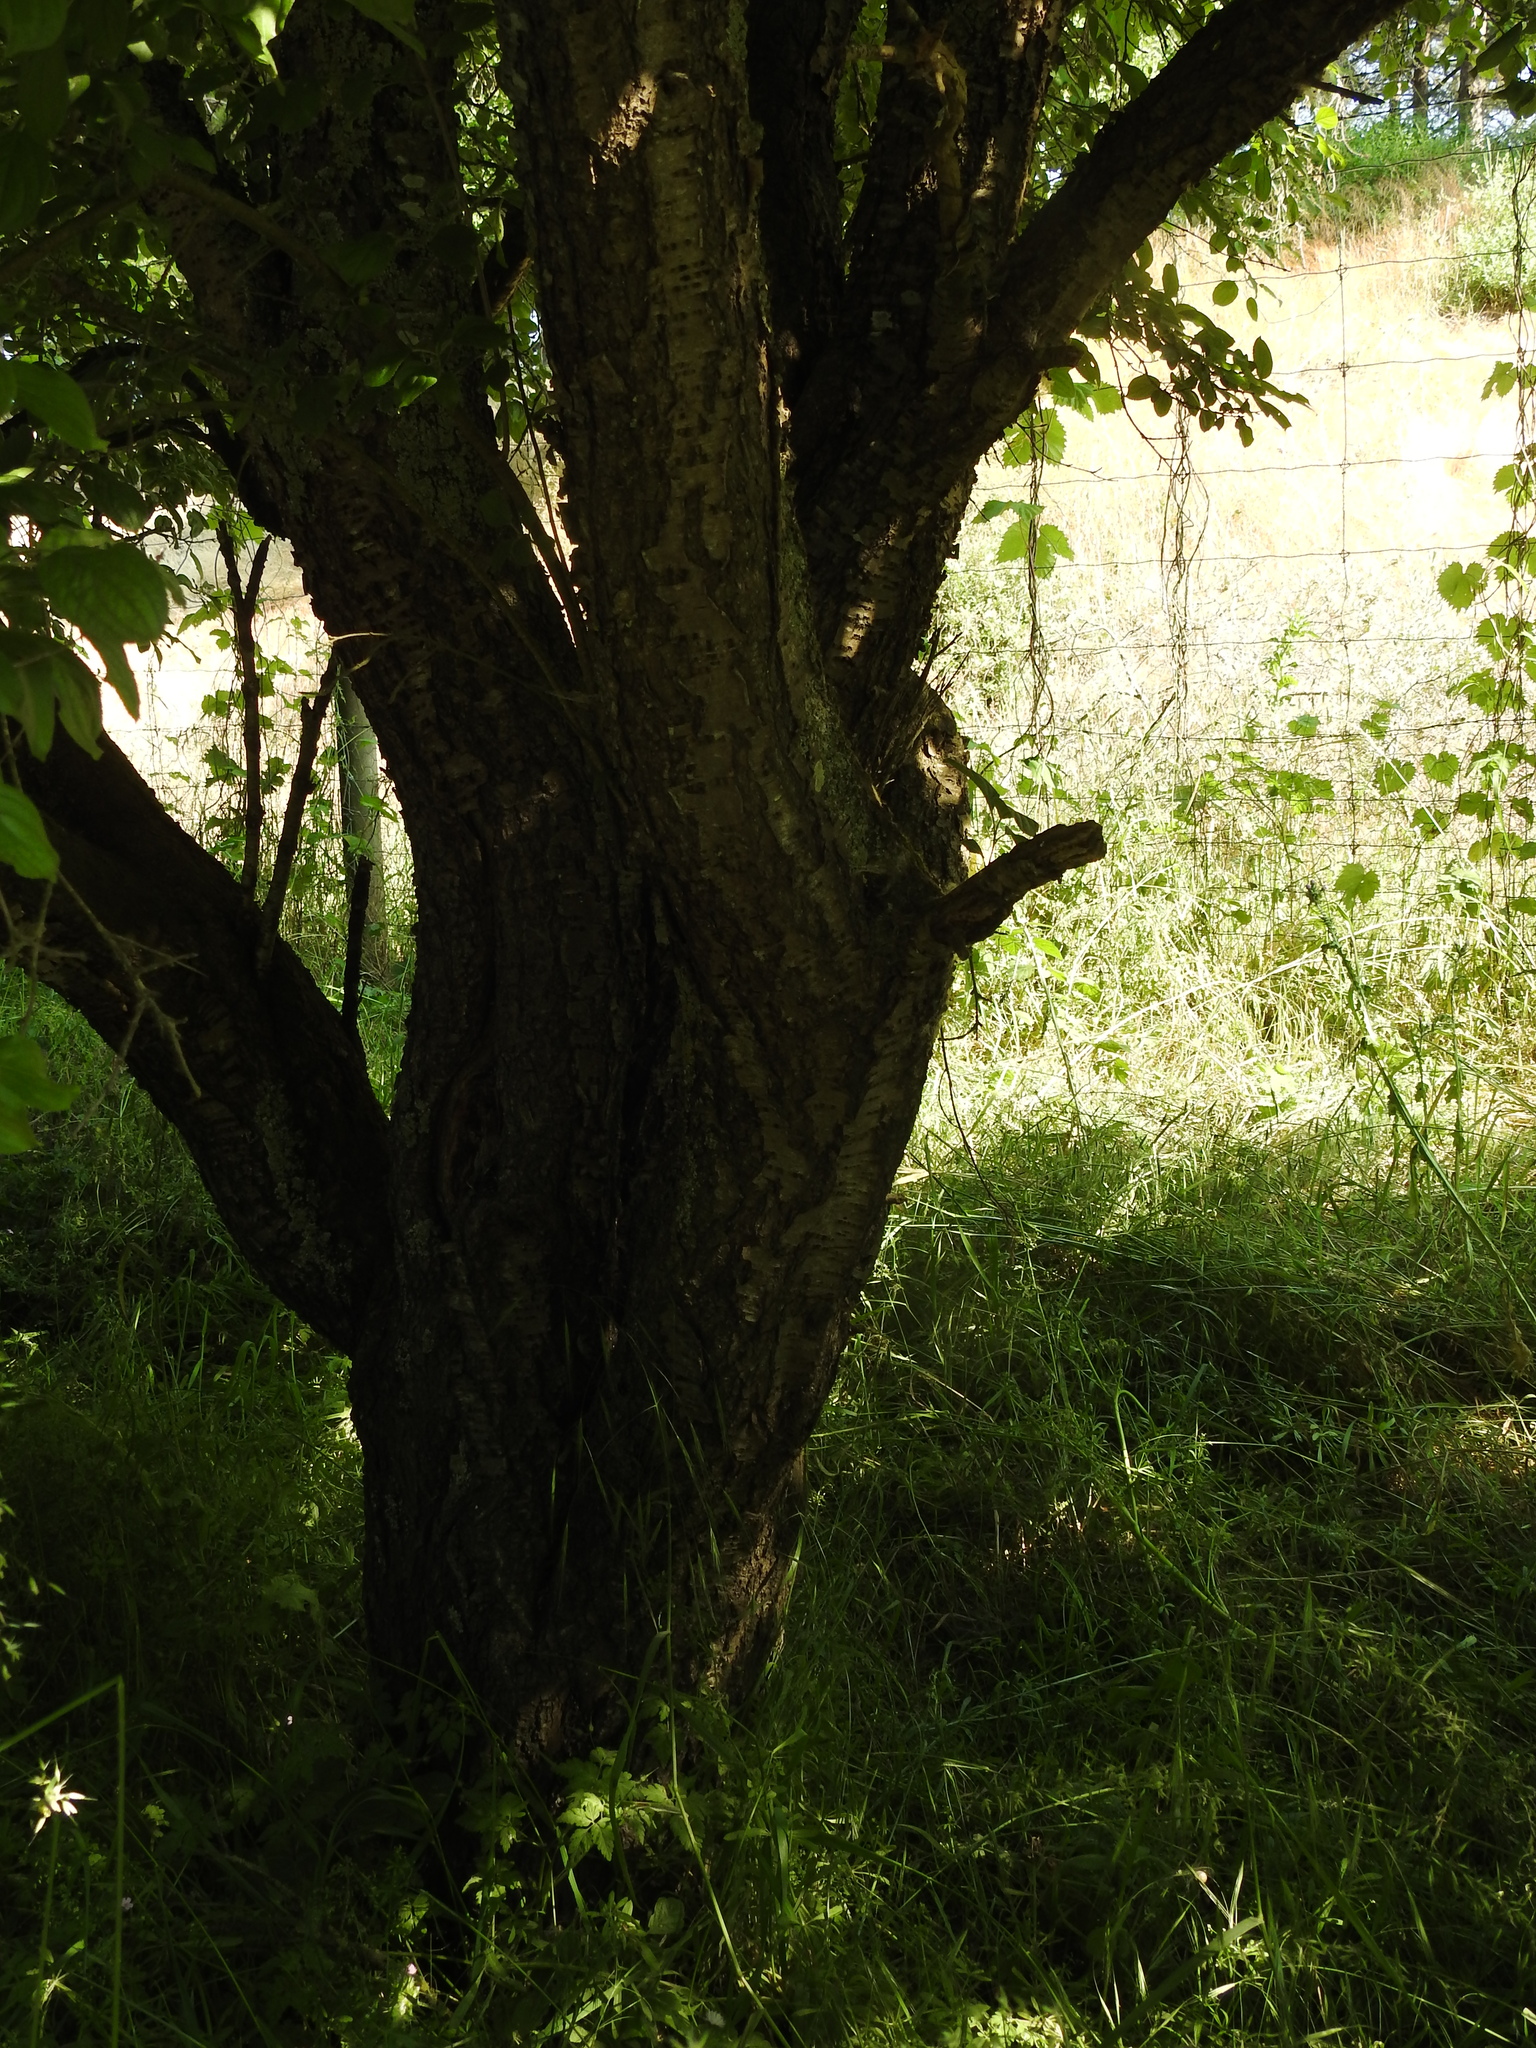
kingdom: Plantae
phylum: Tracheophyta
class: Magnoliopsida
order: Rosales
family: Rhamnaceae
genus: Rhamnus
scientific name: Rhamnus cathartica
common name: Common buckthorn
